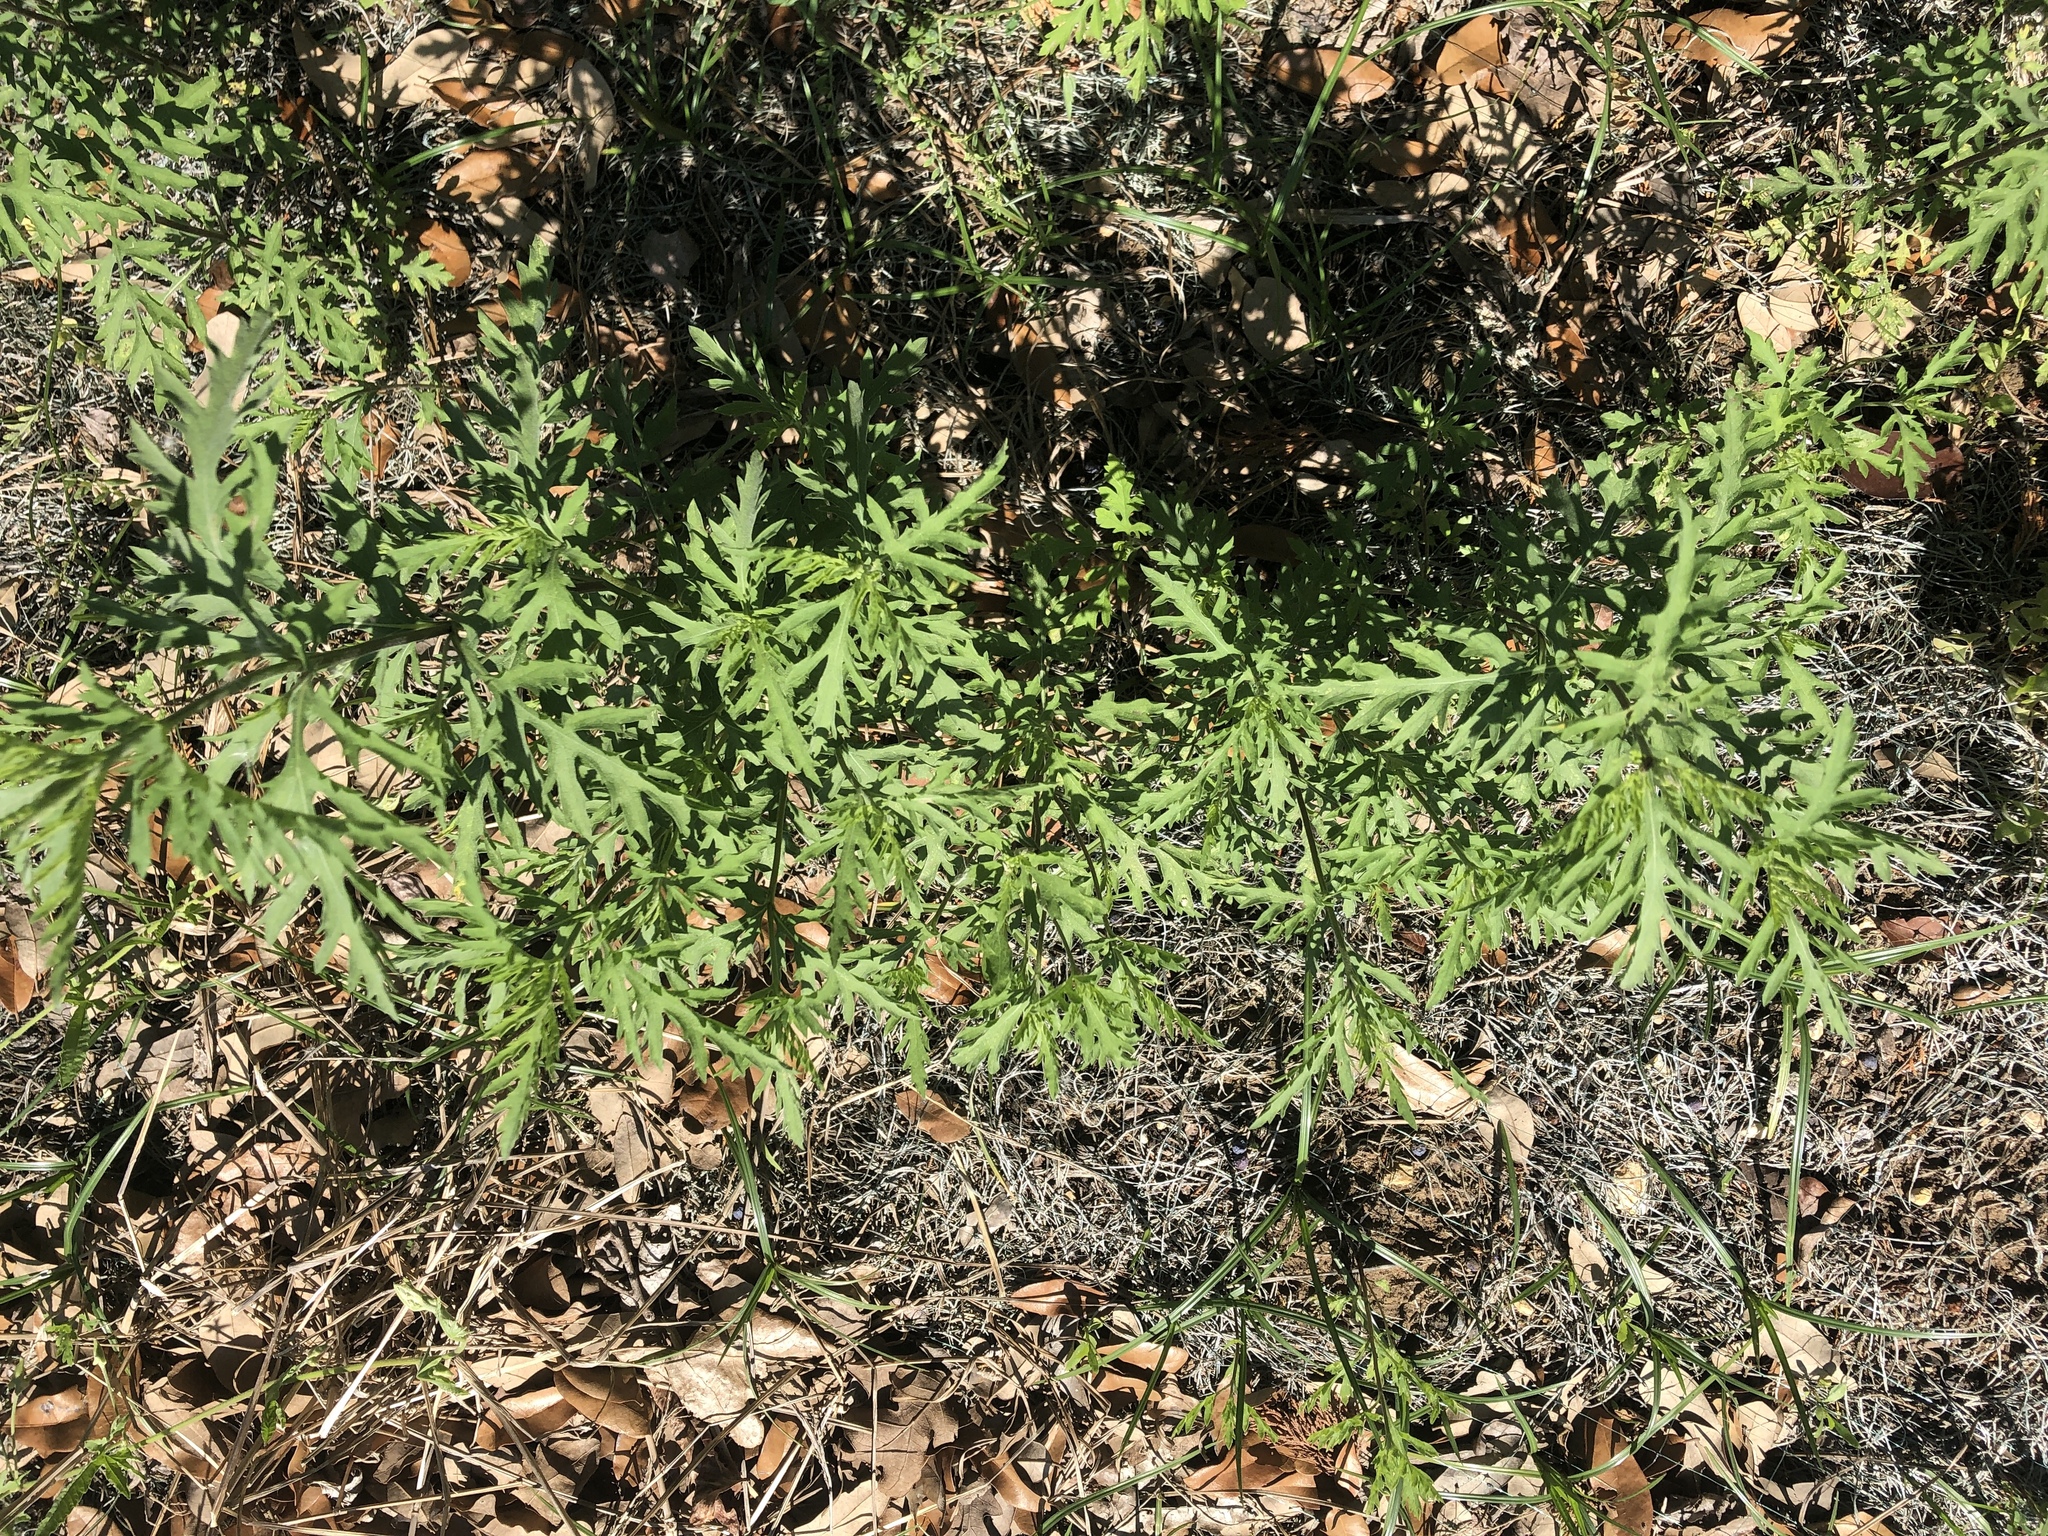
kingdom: Plantae
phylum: Tracheophyta
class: Magnoliopsida
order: Asterales
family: Asteraceae
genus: Ambrosia
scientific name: Ambrosia psilostachya
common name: Perennial ragweed
